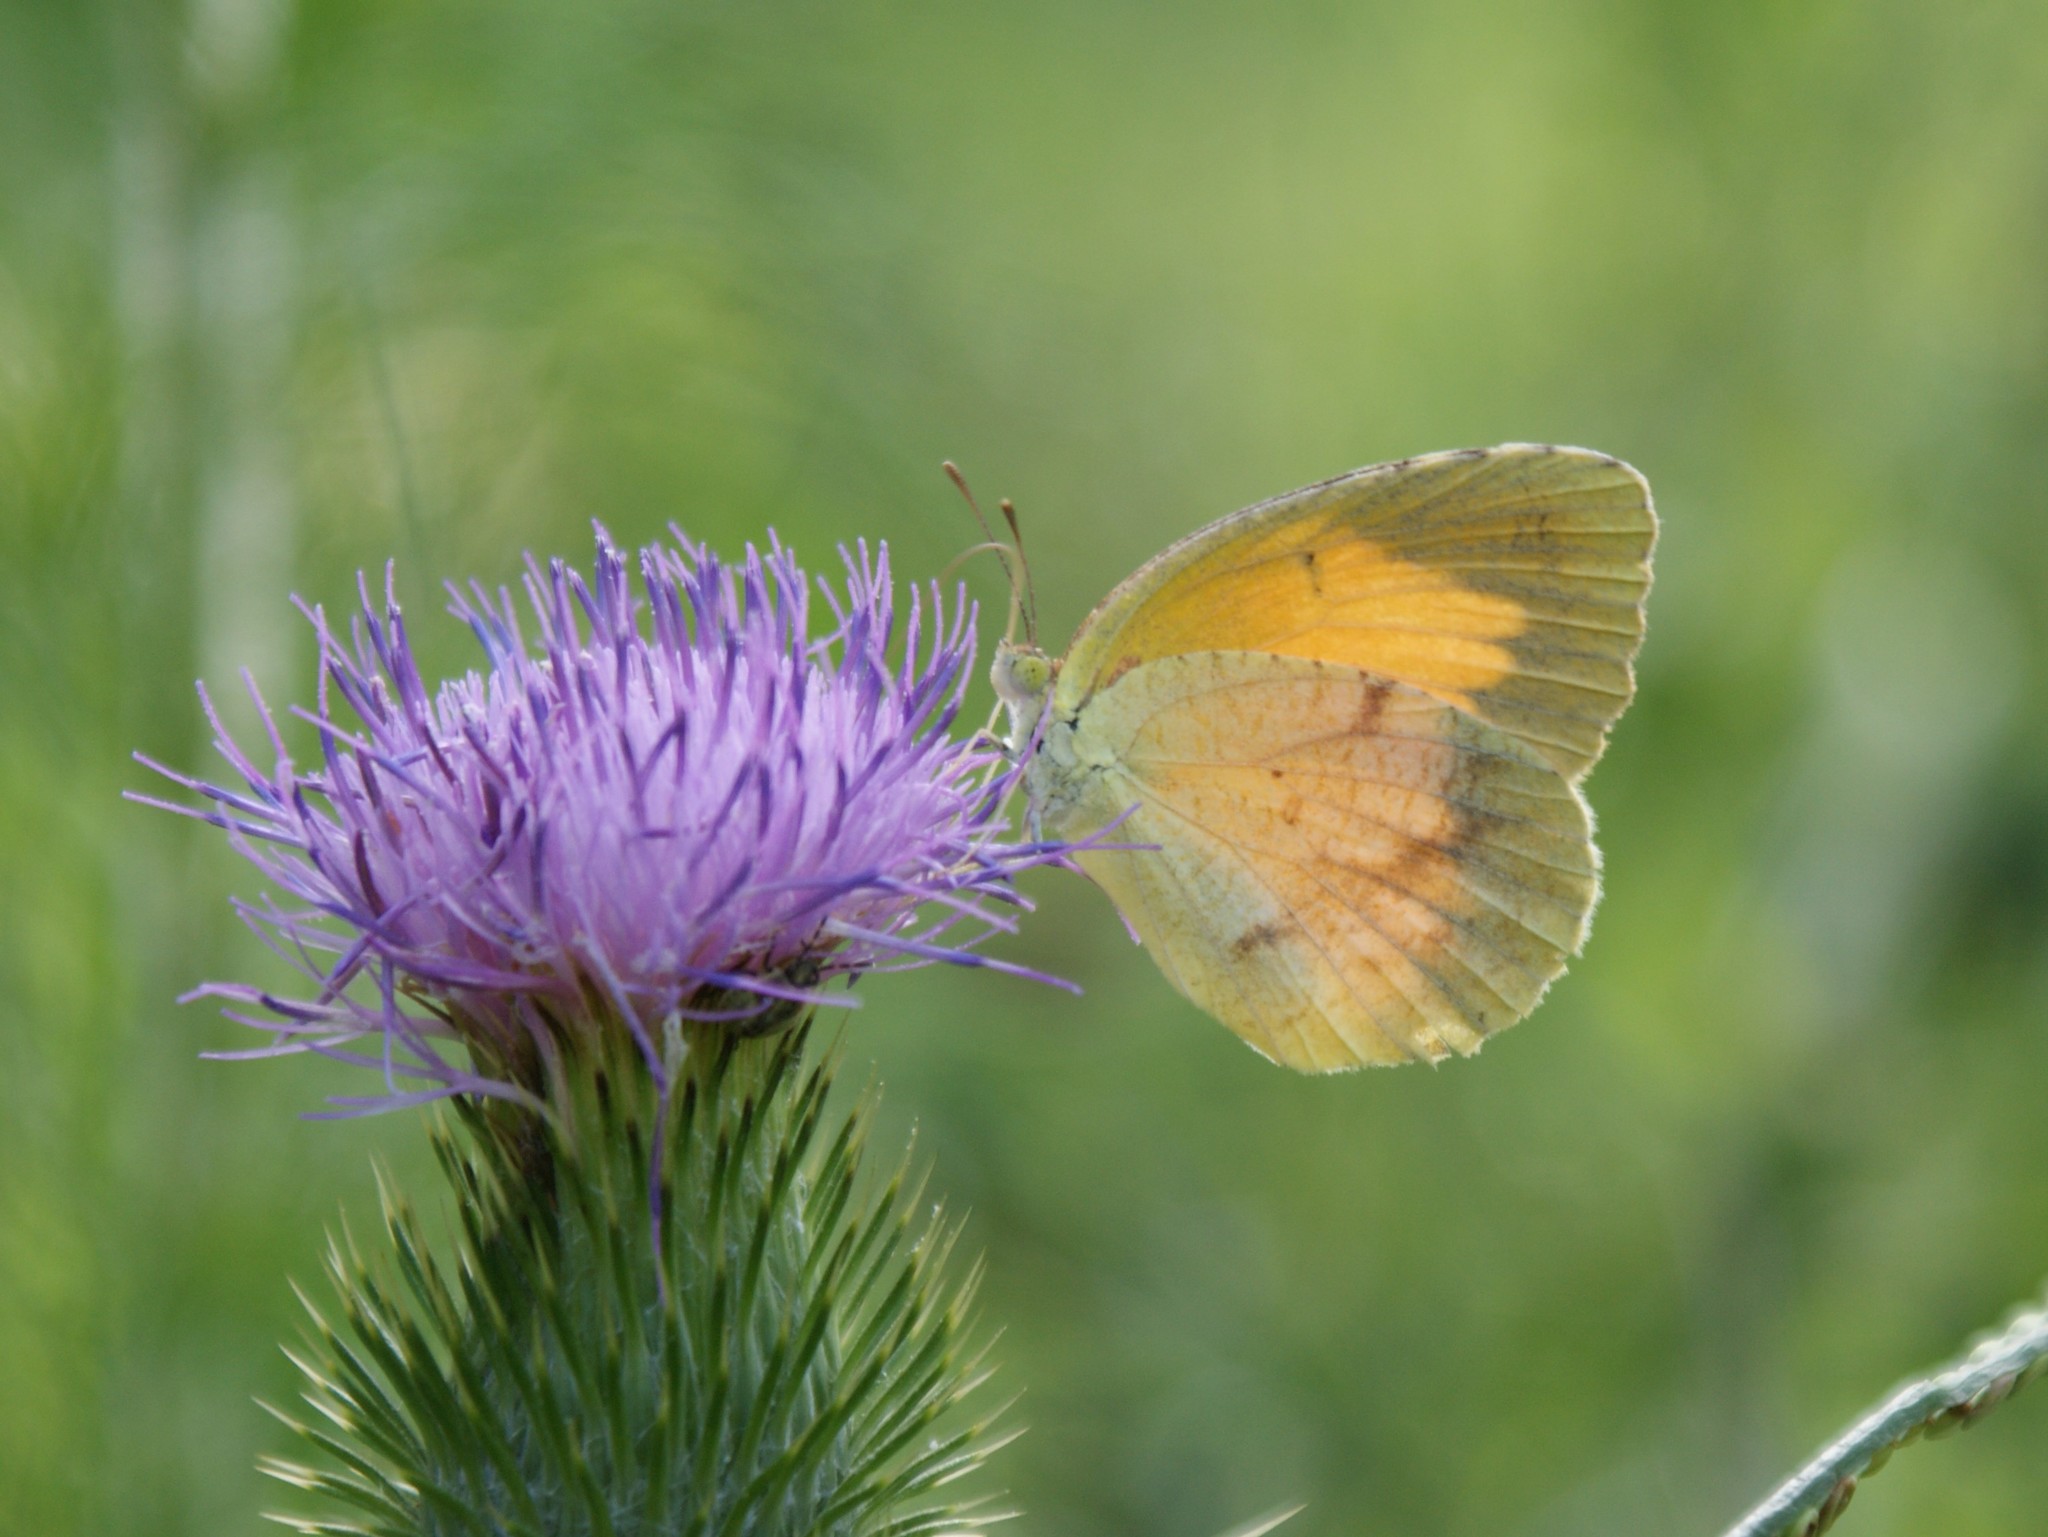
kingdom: Animalia
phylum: Arthropoda
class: Insecta
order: Lepidoptera
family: Pieridae
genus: Abaeis
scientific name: Abaeis nicippe
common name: Sleepy orange
